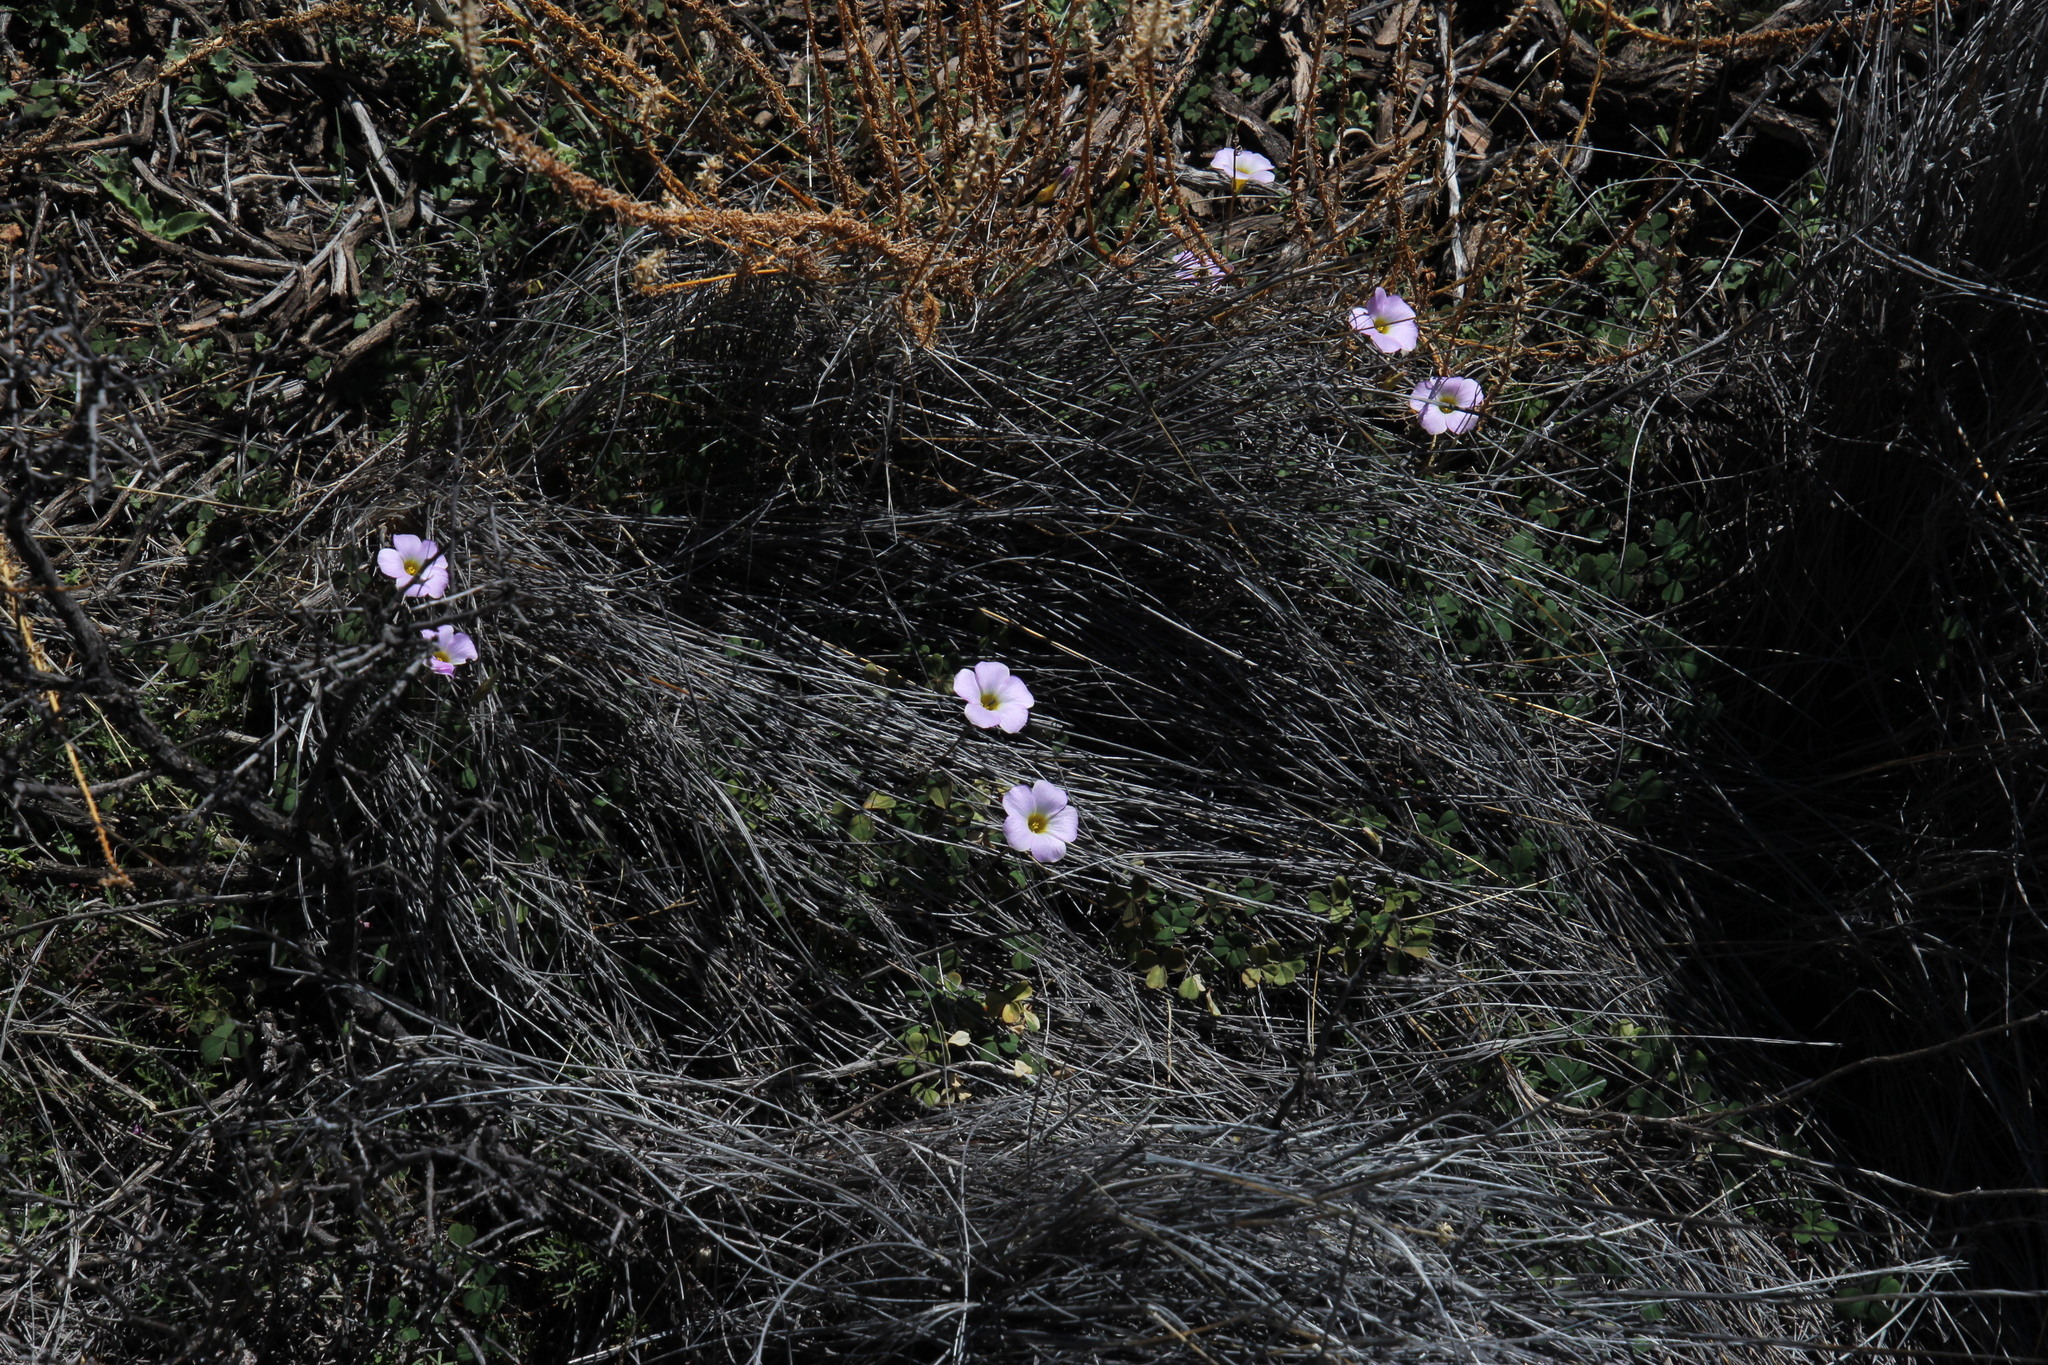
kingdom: Plantae
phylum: Tracheophyta
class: Magnoliopsida
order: Oxalidales
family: Oxalidaceae
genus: Oxalis
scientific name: Oxalis obtusa
